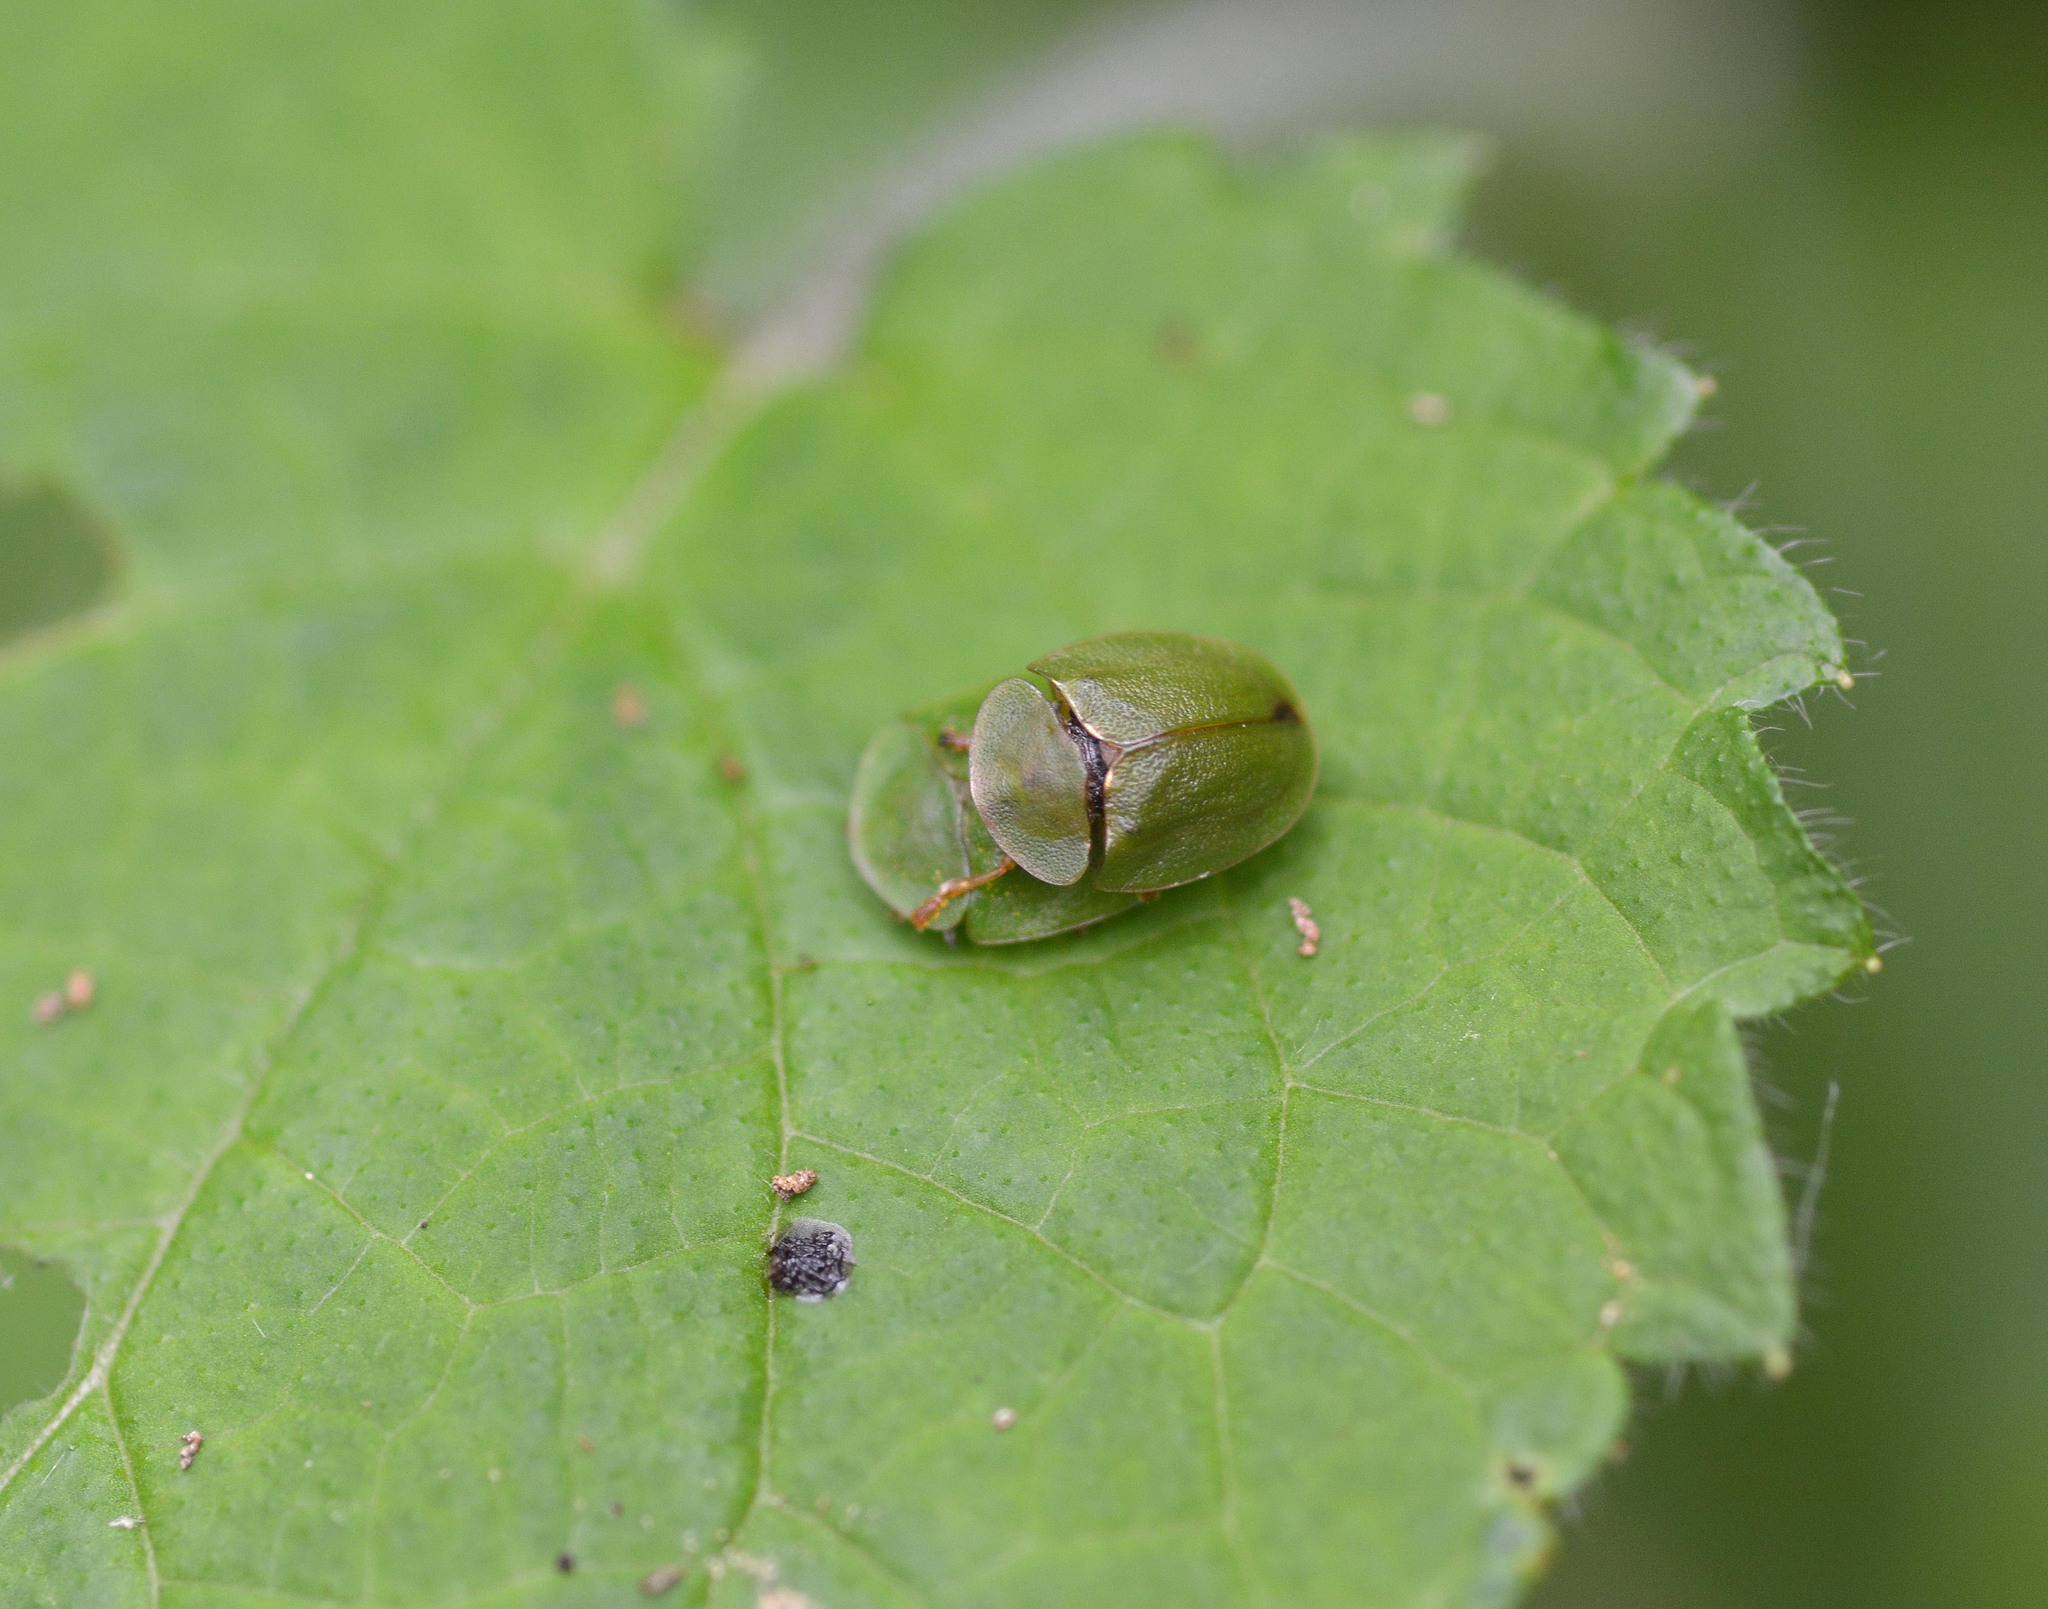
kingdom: Animalia
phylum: Arthropoda
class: Insecta
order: Coleoptera
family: Chrysomelidae
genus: Cassida
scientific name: Cassida viridis
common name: Green tortoise beetle
